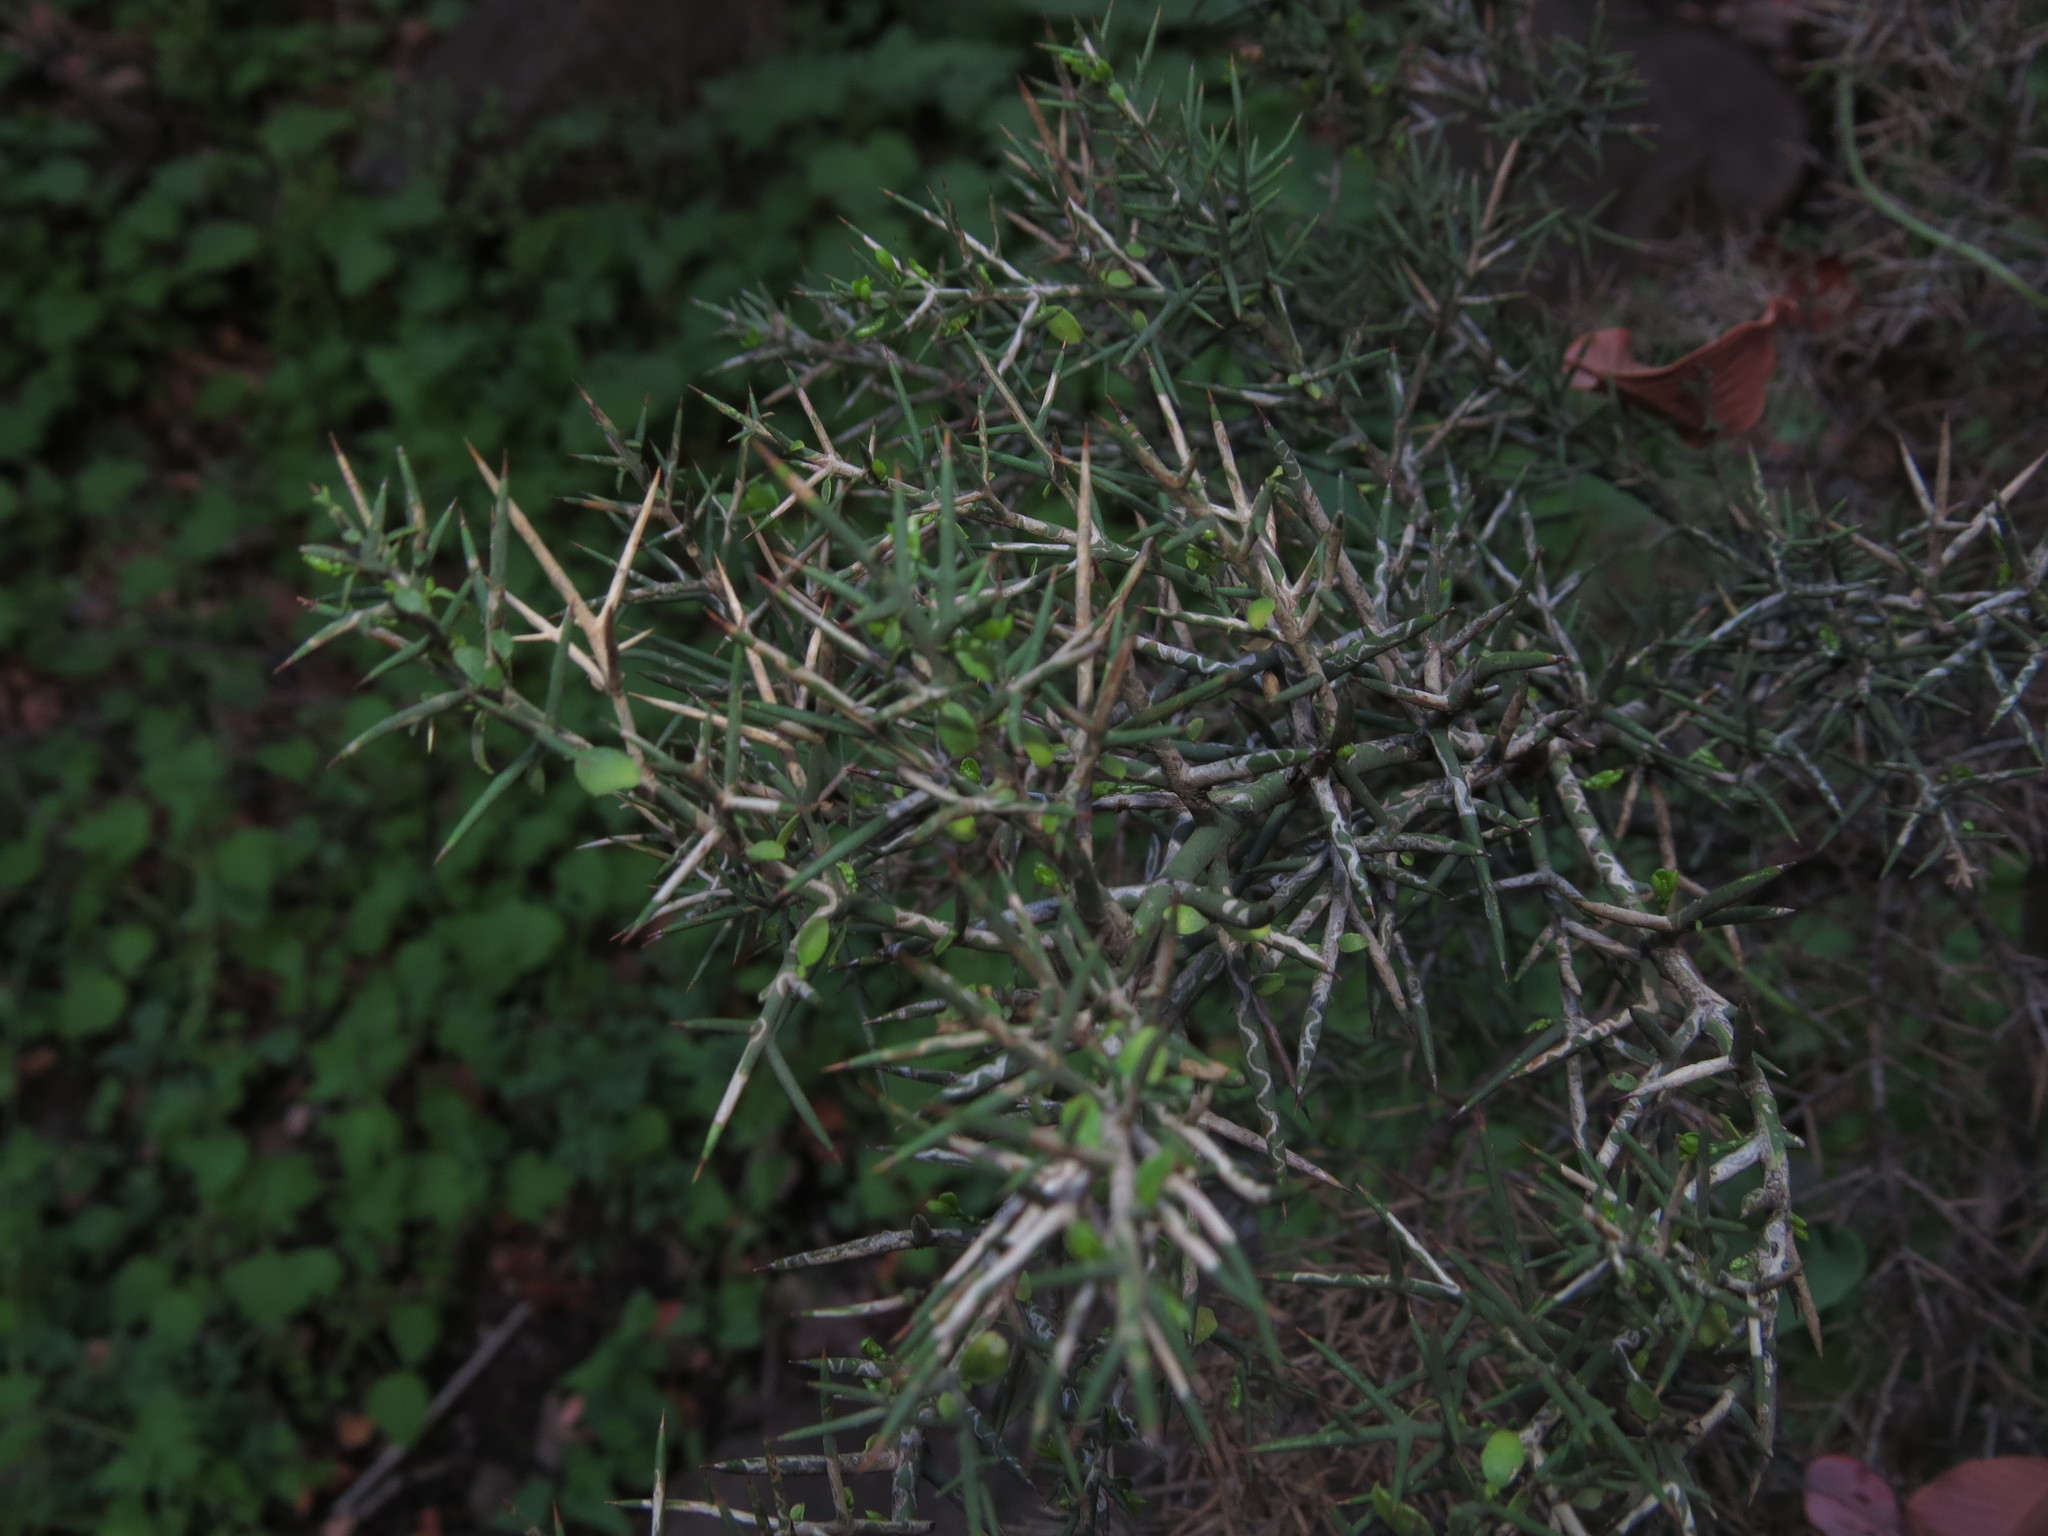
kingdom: Plantae
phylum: Tracheophyta
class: Magnoliopsida
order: Rosales
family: Rhamnaceae
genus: Colletia
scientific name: Colletia hystrix
